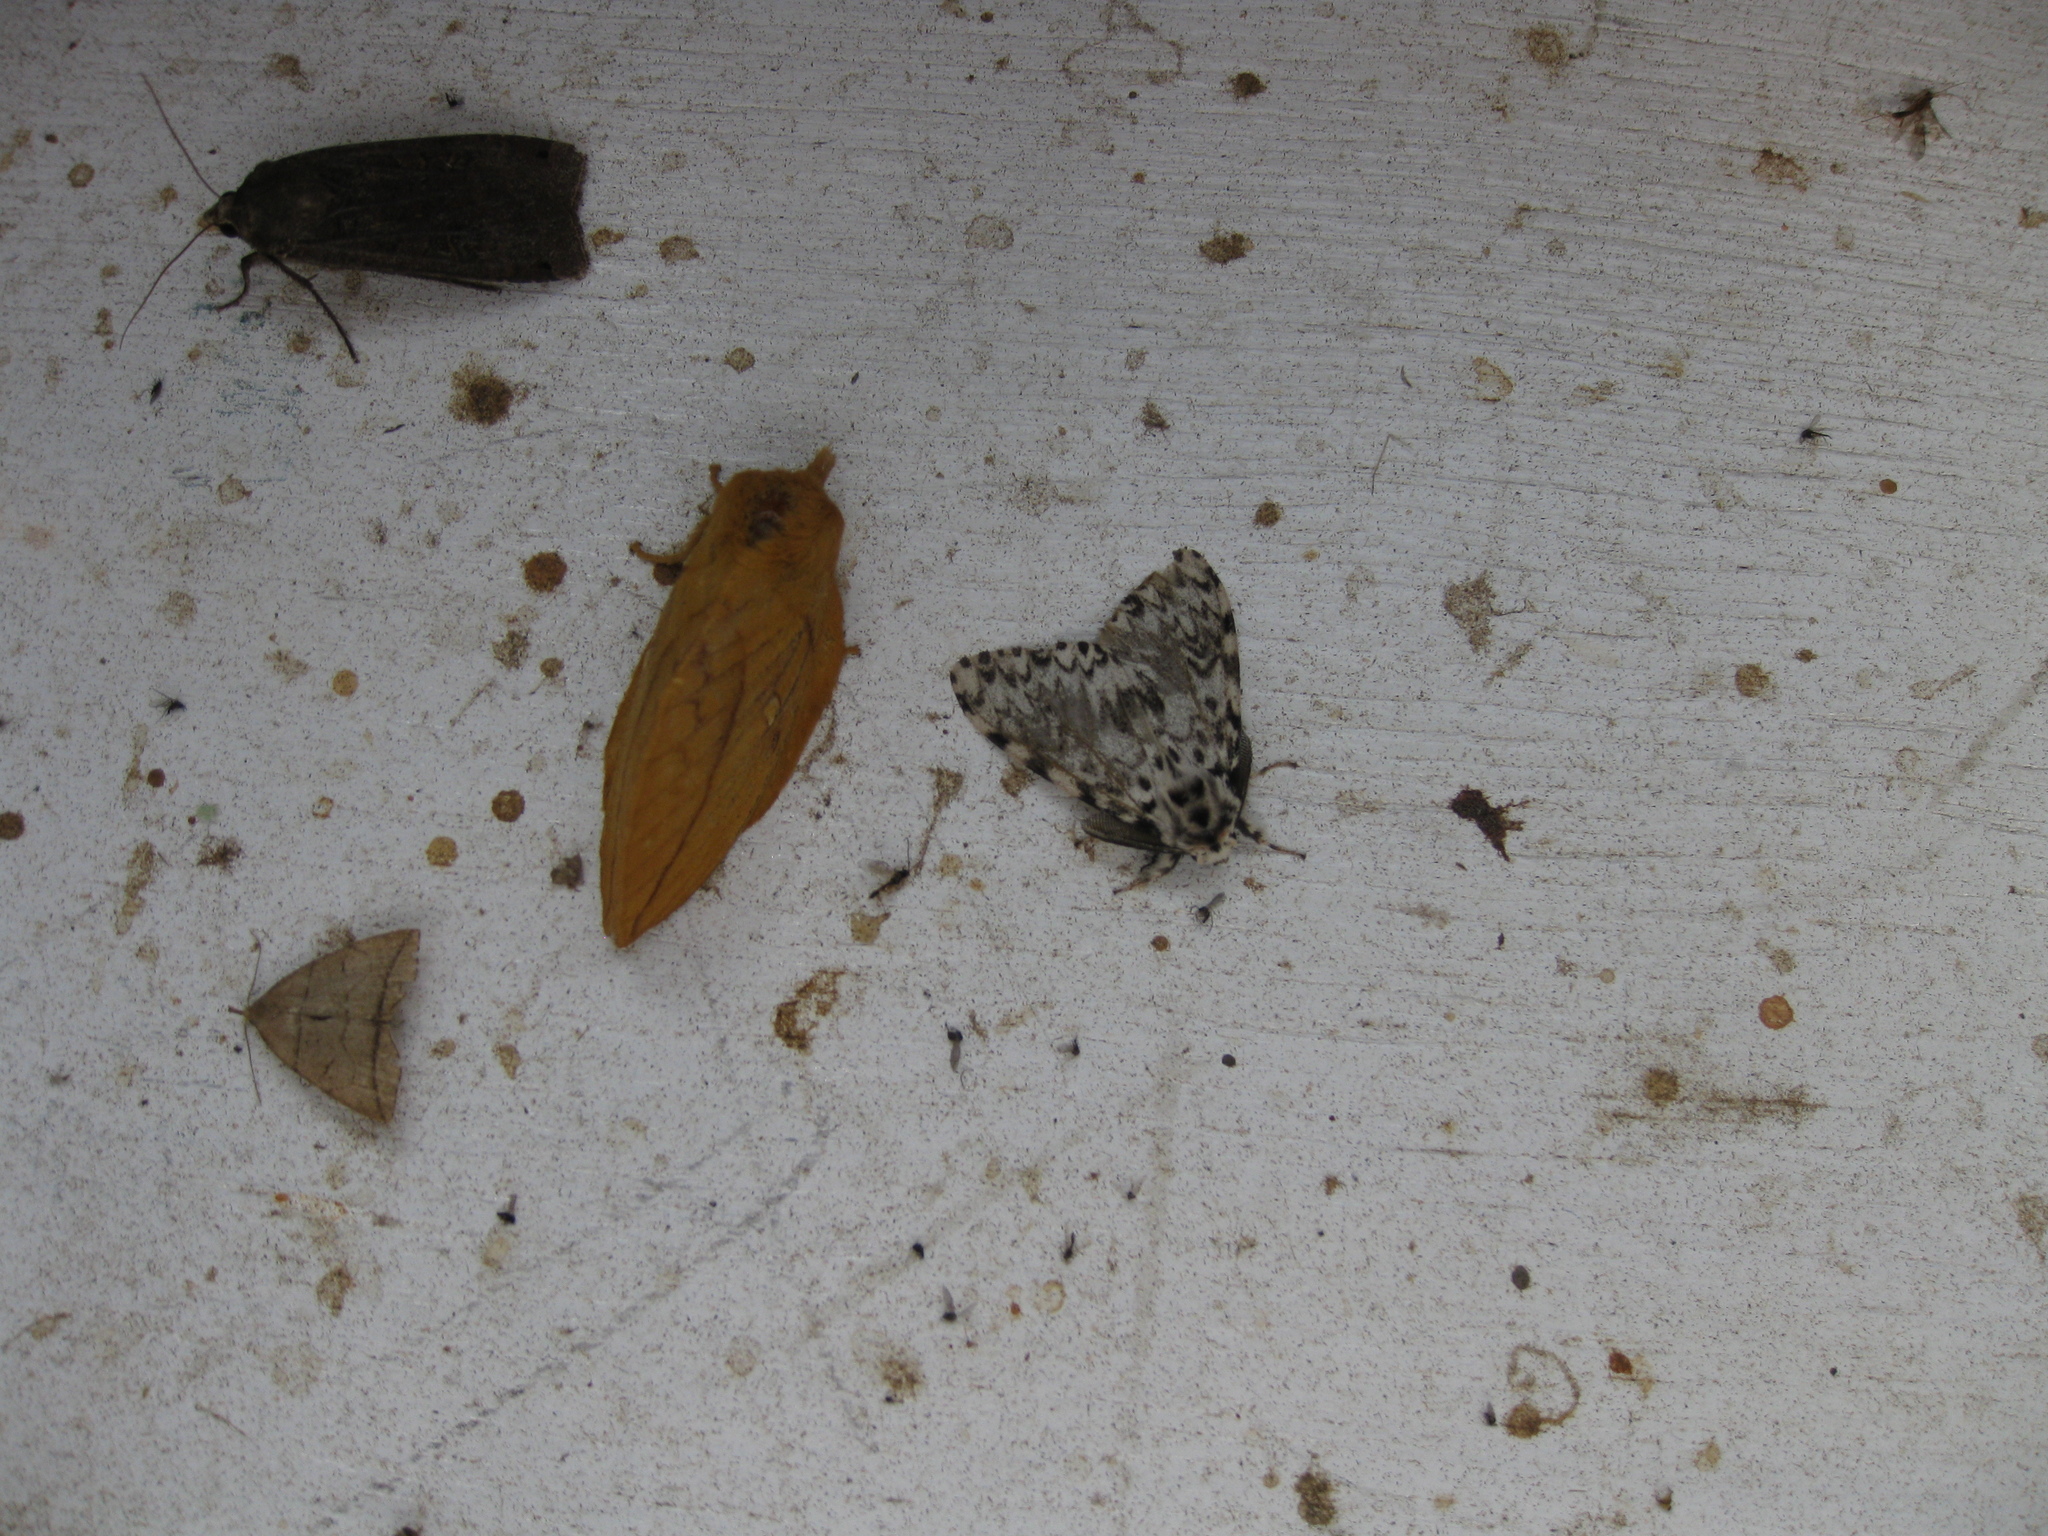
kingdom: Animalia
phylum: Arthropoda
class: Insecta
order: Lepidoptera
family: Erebidae
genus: Herminia
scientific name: Herminia grisealis
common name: Small fan-foot
